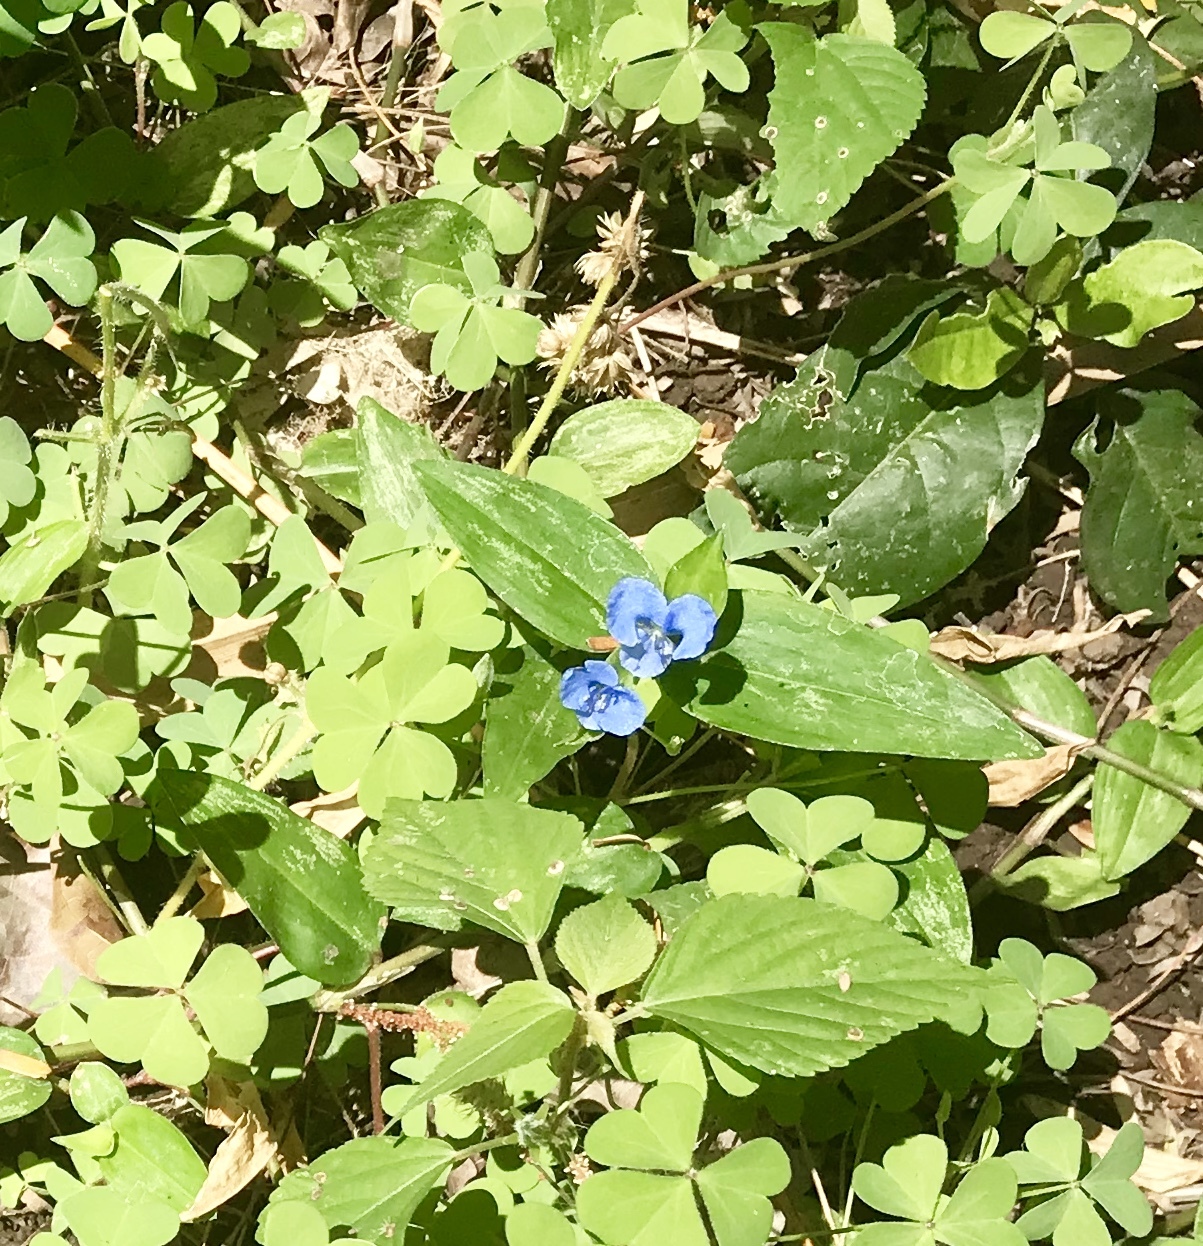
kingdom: Plantae
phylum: Tracheophyta
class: Liliopsida
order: Commelinales
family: Commelinaceae
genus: Commelina
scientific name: Commelina diffusa
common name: Climbing dayflower
